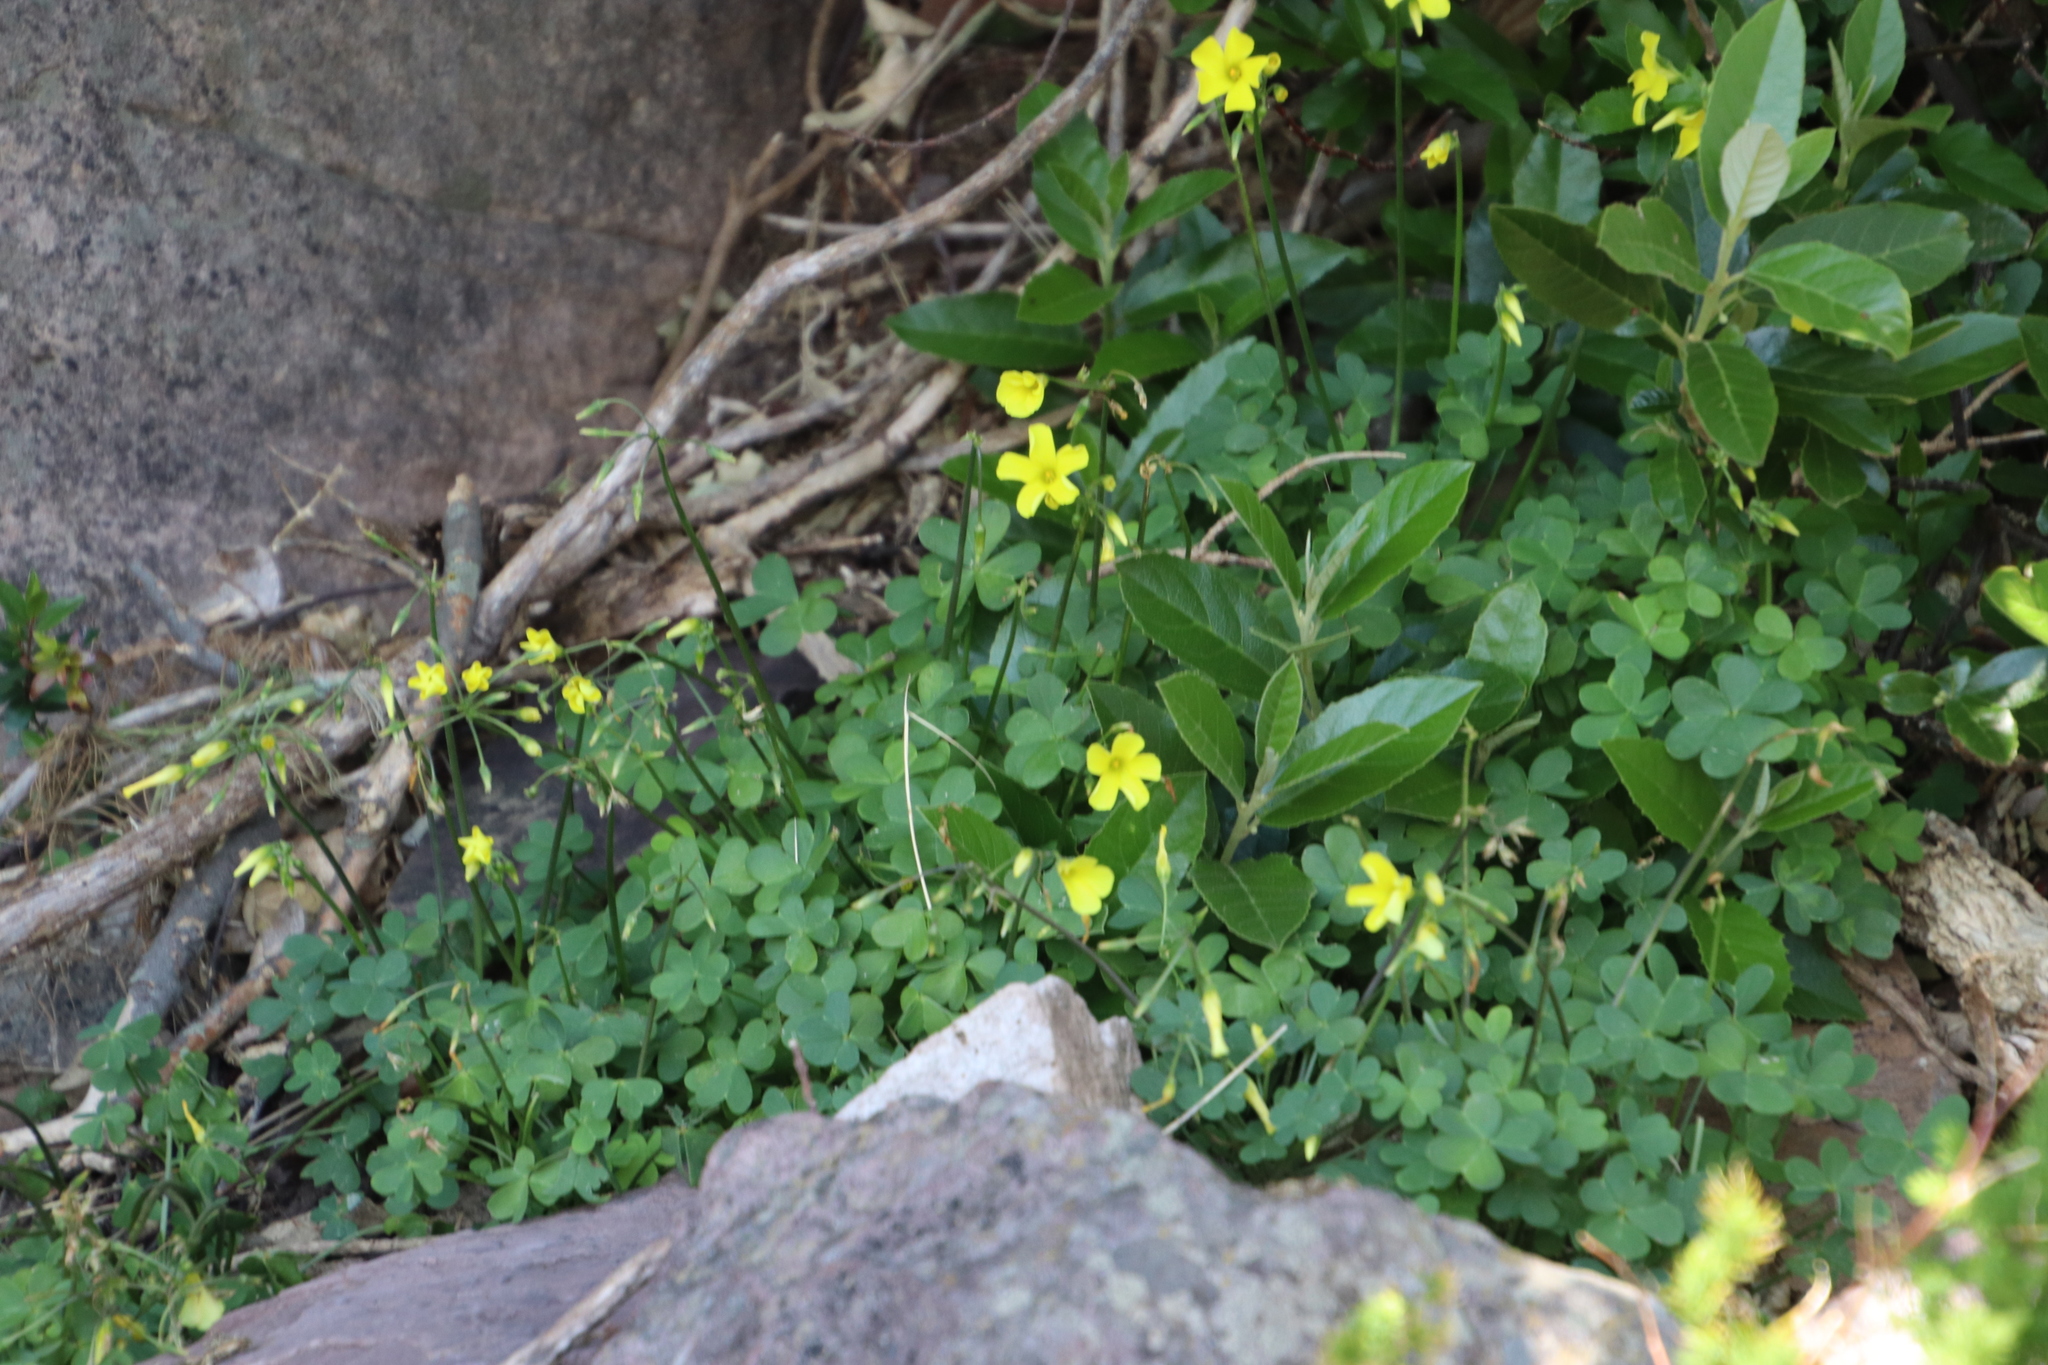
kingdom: Plantae
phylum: Tracheophyta
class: Magnoliopsida
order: Oxalidales
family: Oxalidaceae
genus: Oxalis
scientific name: Oxalis pes-caprae
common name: Bermuda-buttercup
